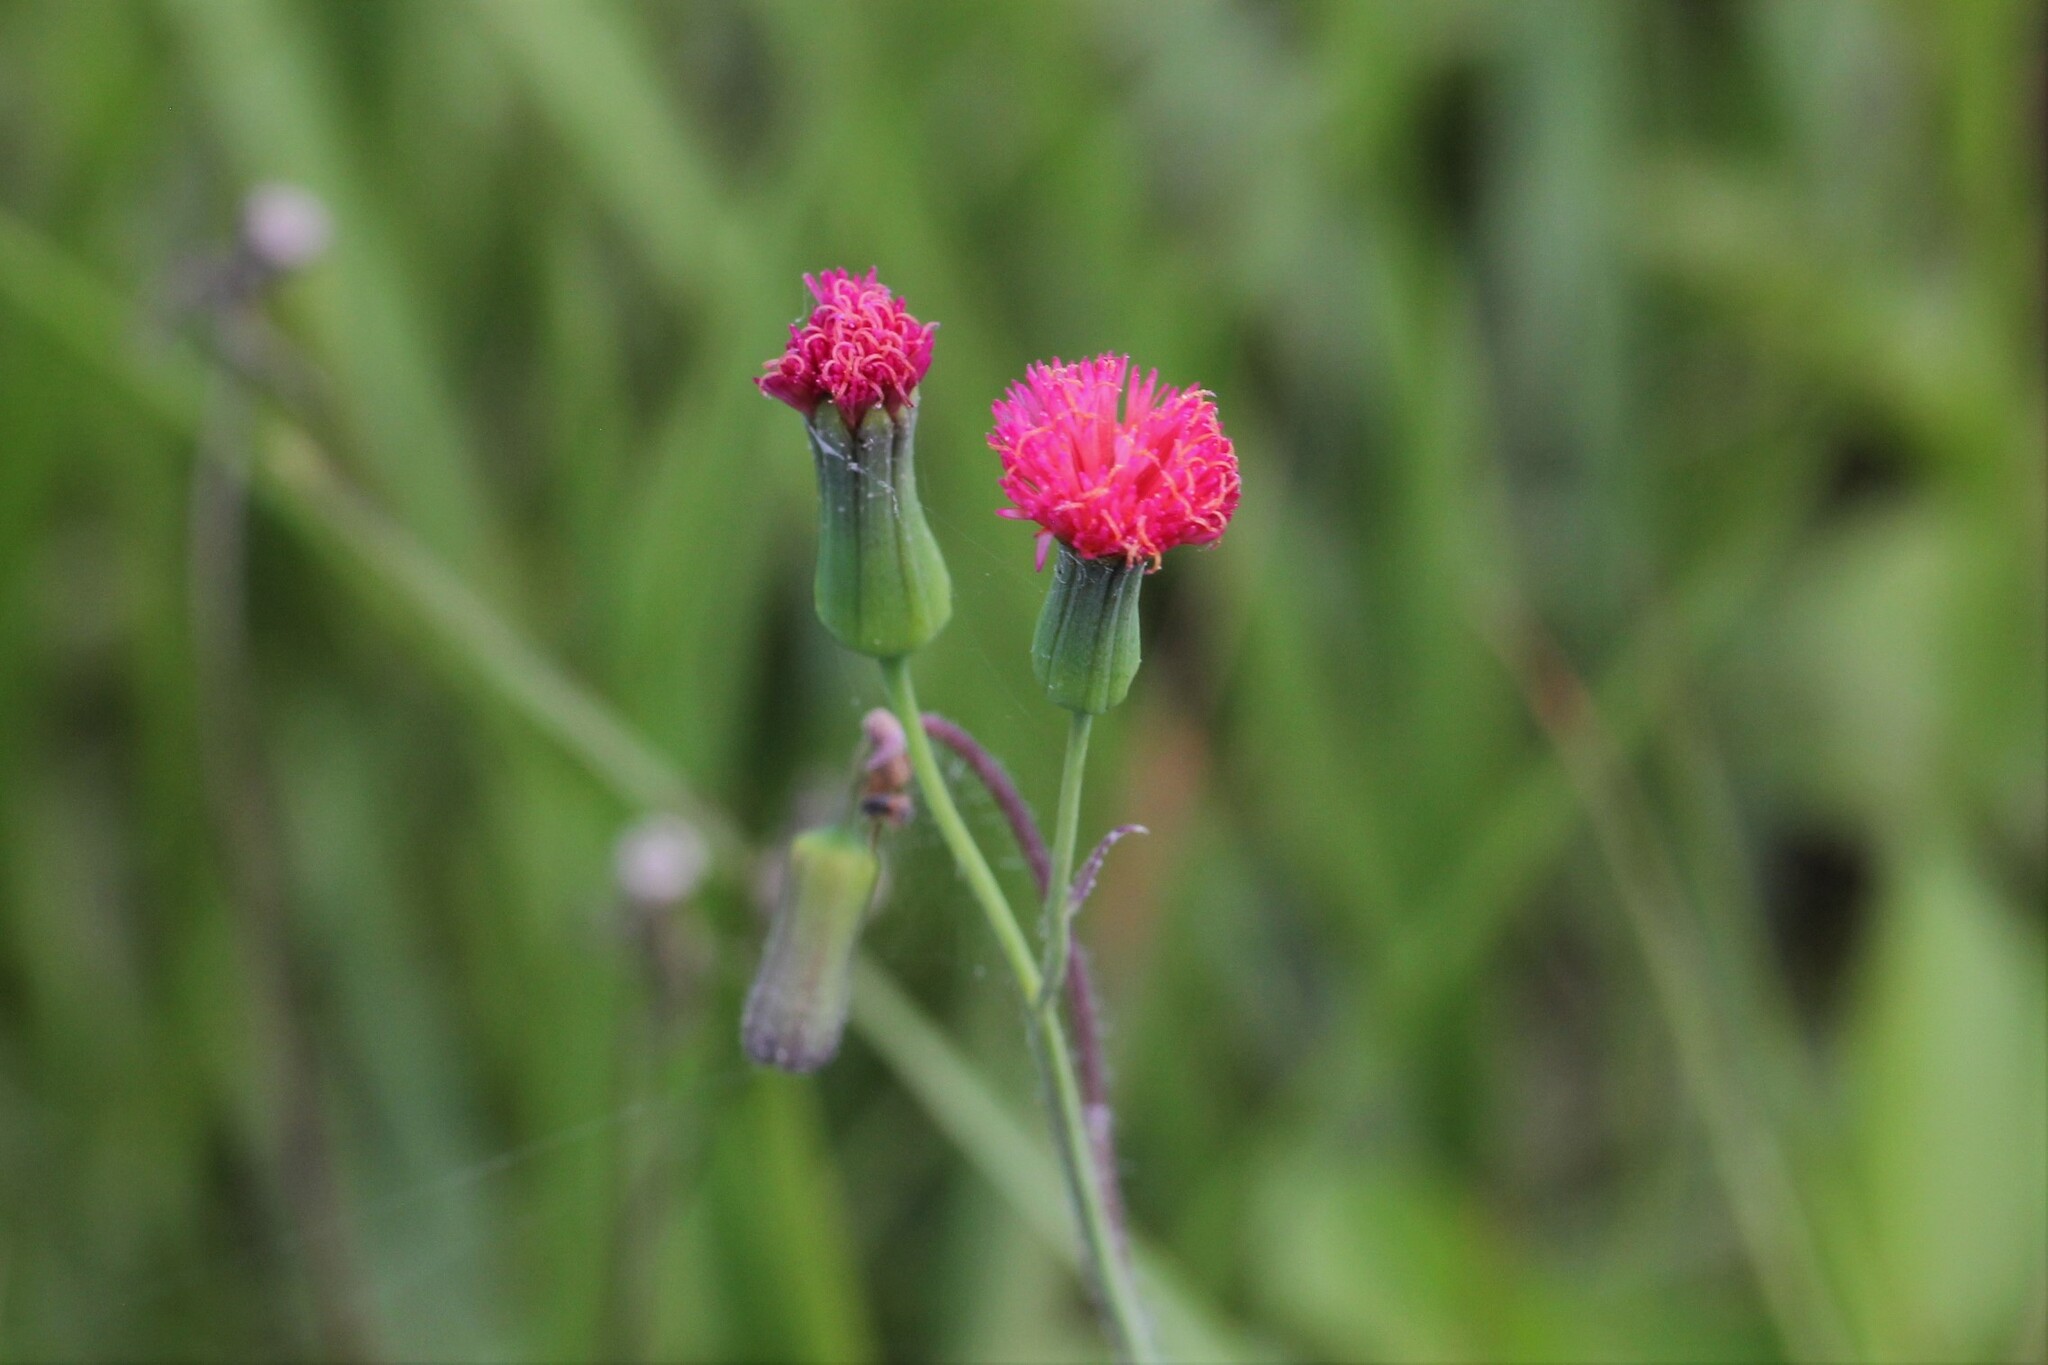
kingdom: Plantae
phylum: Tracheophyta
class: Magnoliopsida
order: Asterales
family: Asteraceae
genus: Emilia
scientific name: Emilia fosbergii
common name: Florida tasselflower
